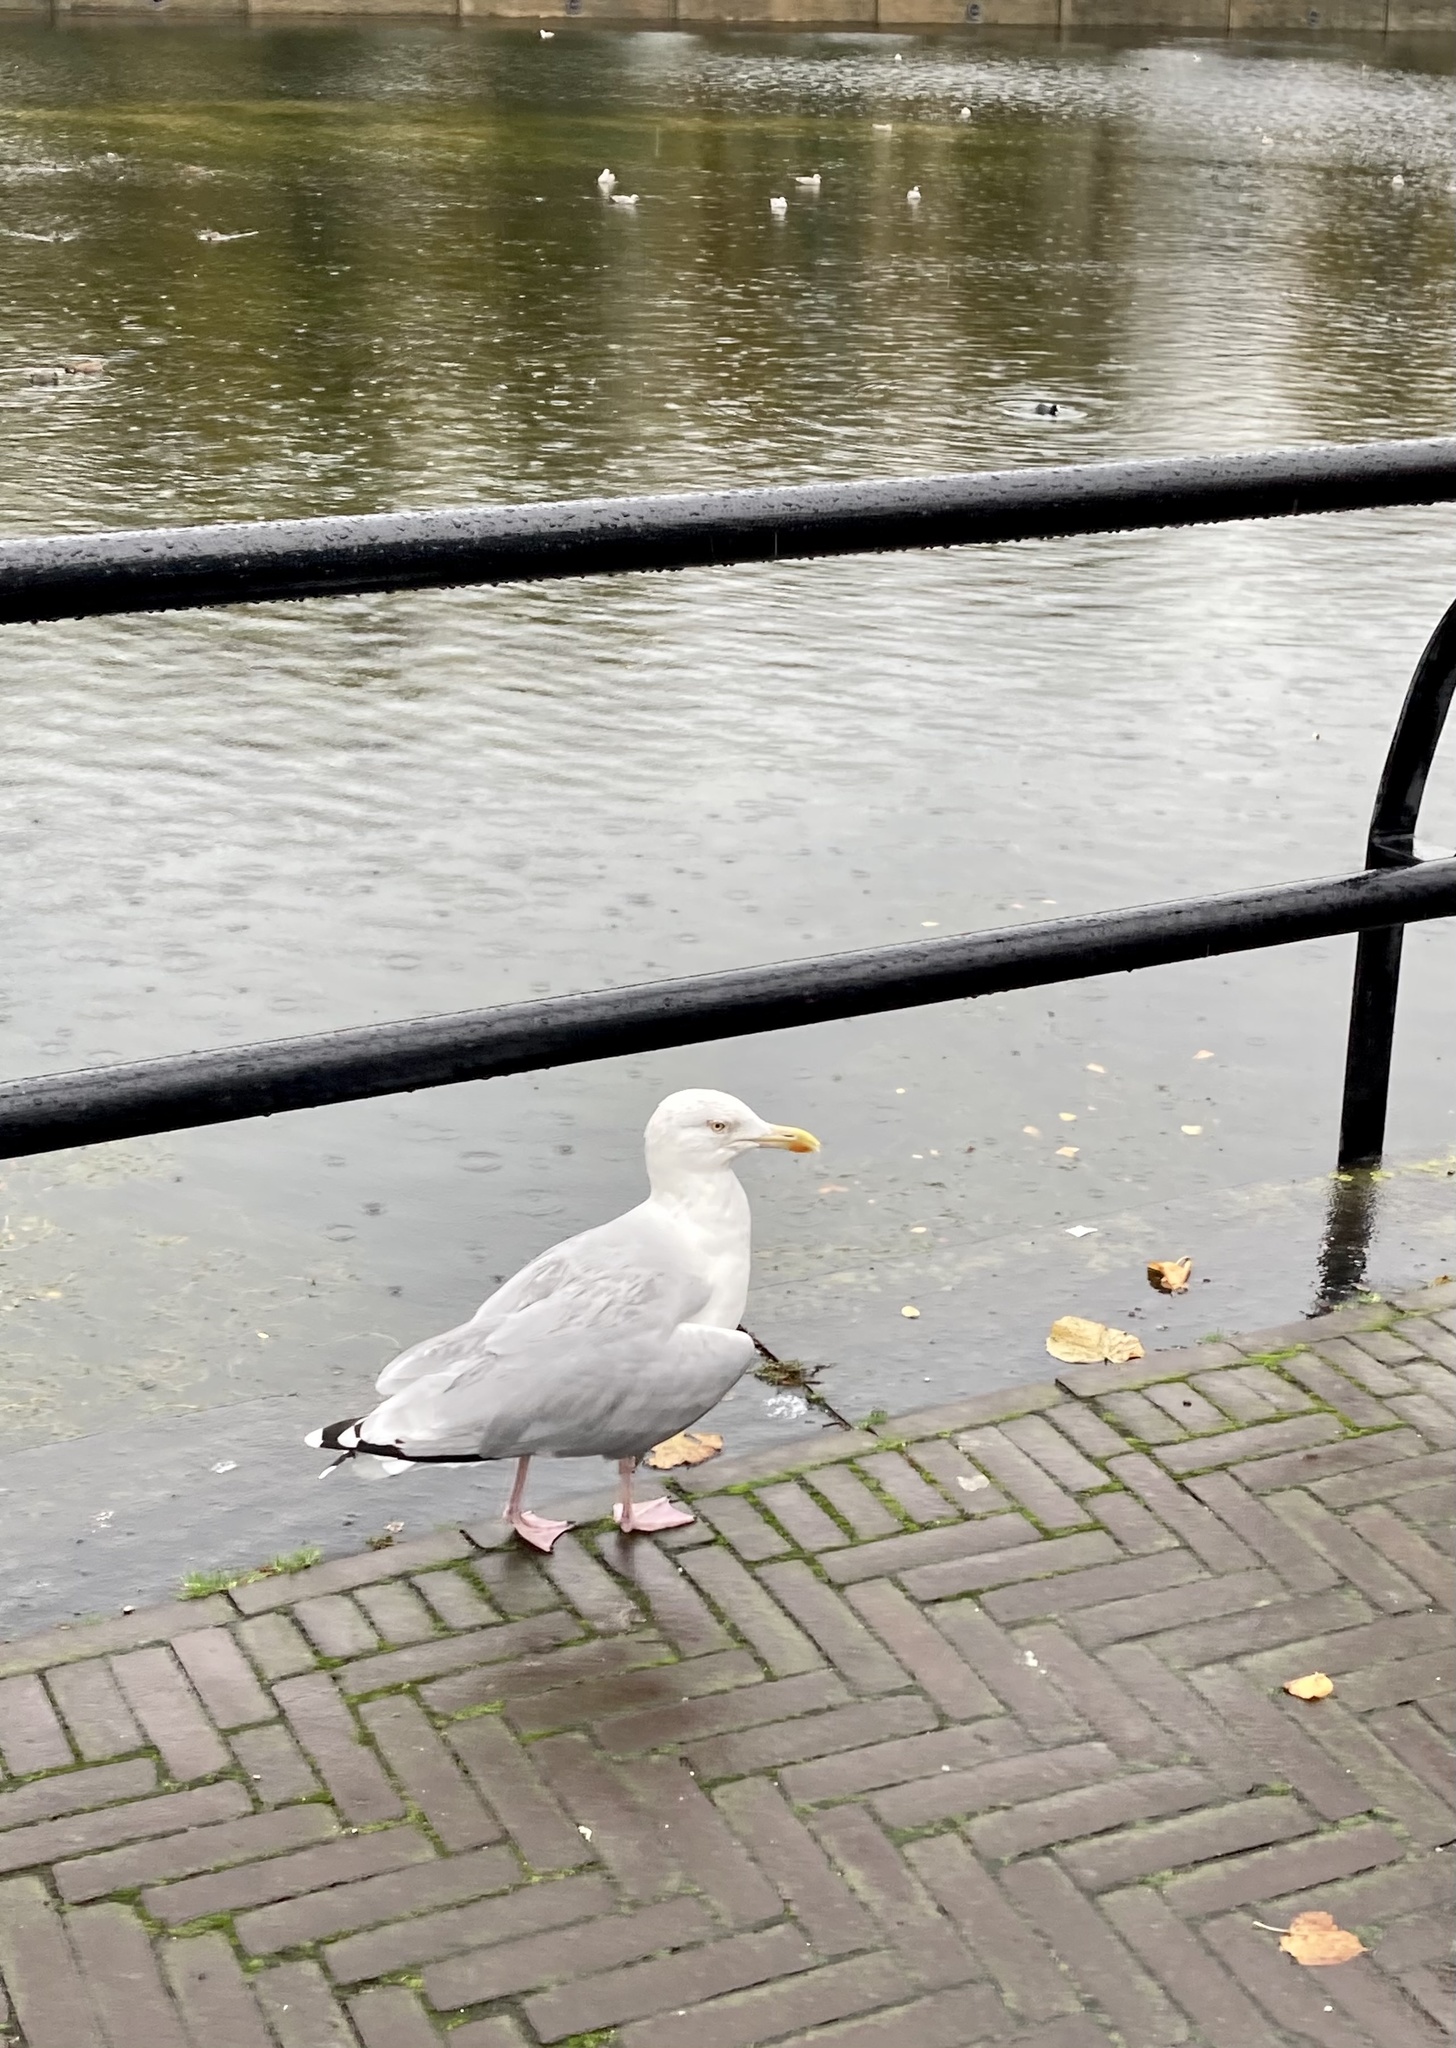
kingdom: Animalia
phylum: Chordata
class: Aves
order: Charadriiformes
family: Laridae
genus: Larus
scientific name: Larus argentatus
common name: Herring gull
